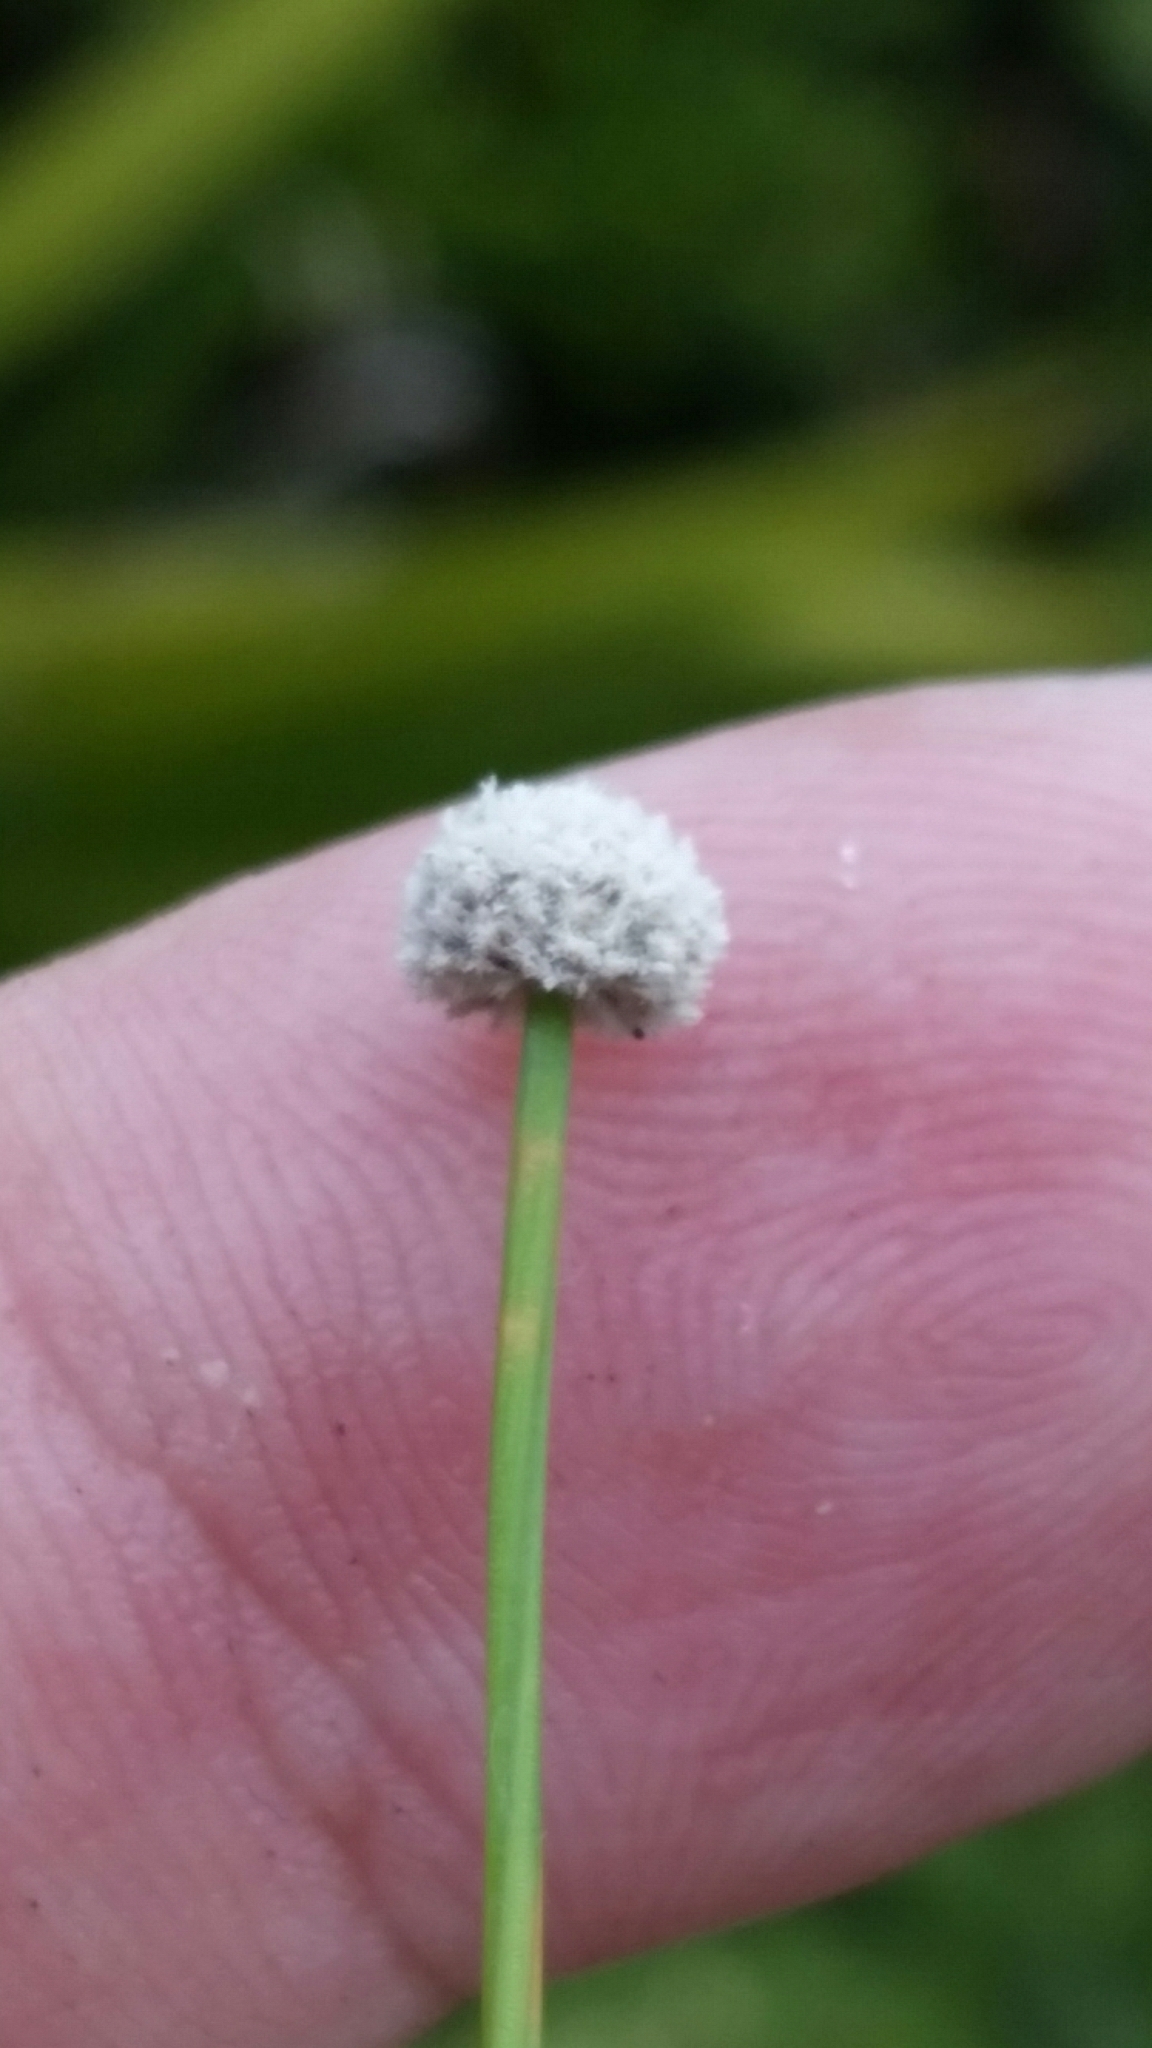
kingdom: Plantae
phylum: Tracheophyta
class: Liliopsida
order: Poales
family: Eriocaulaceae
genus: Paepalanthus
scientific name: Paepalanthus anceps
